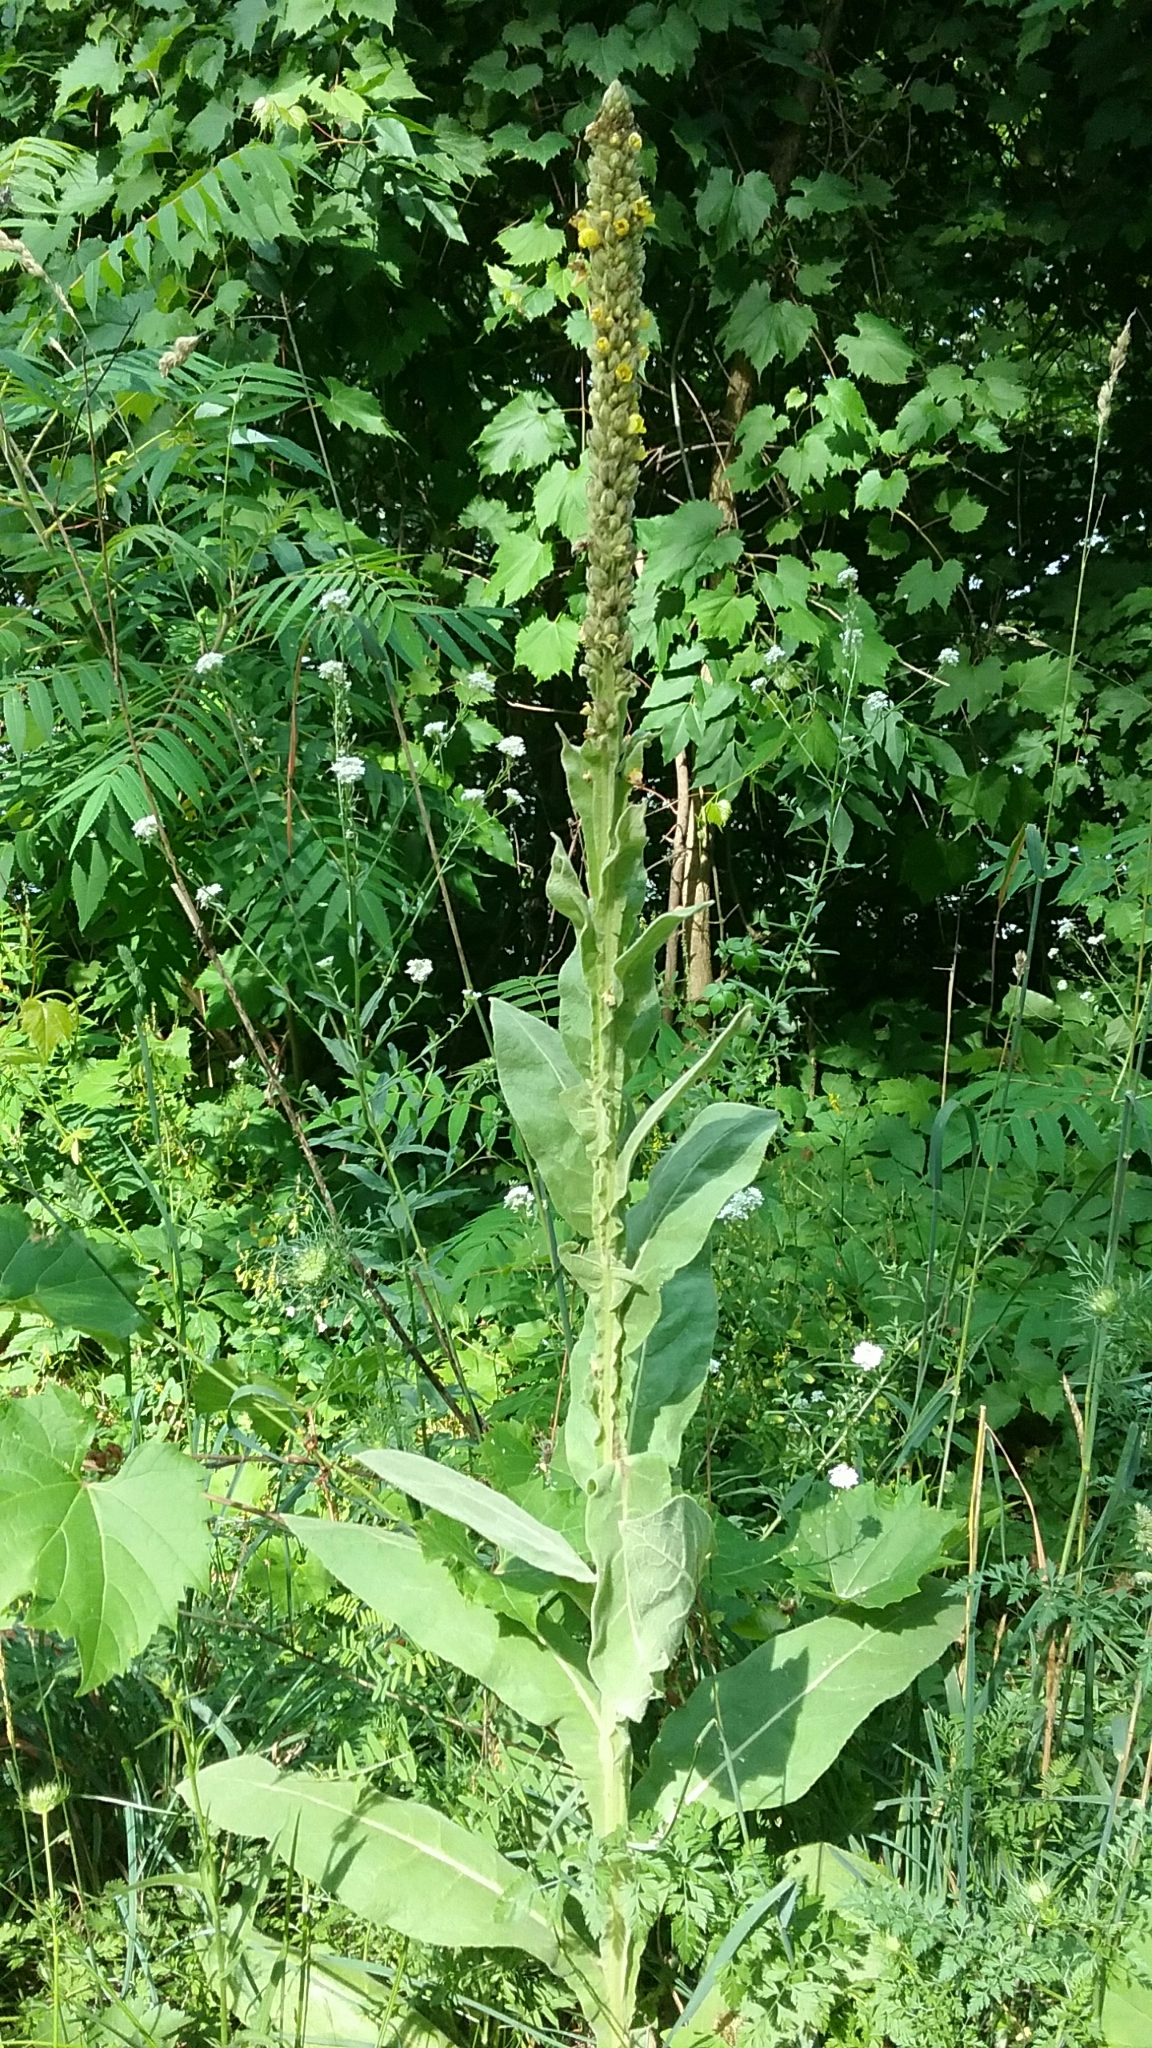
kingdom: Plantae
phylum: Tracheophyta
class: Magnoliopsida
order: Lamiales
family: Scrophulariaceae
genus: Verbascum
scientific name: Verbascum thapsus
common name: Common mullein
